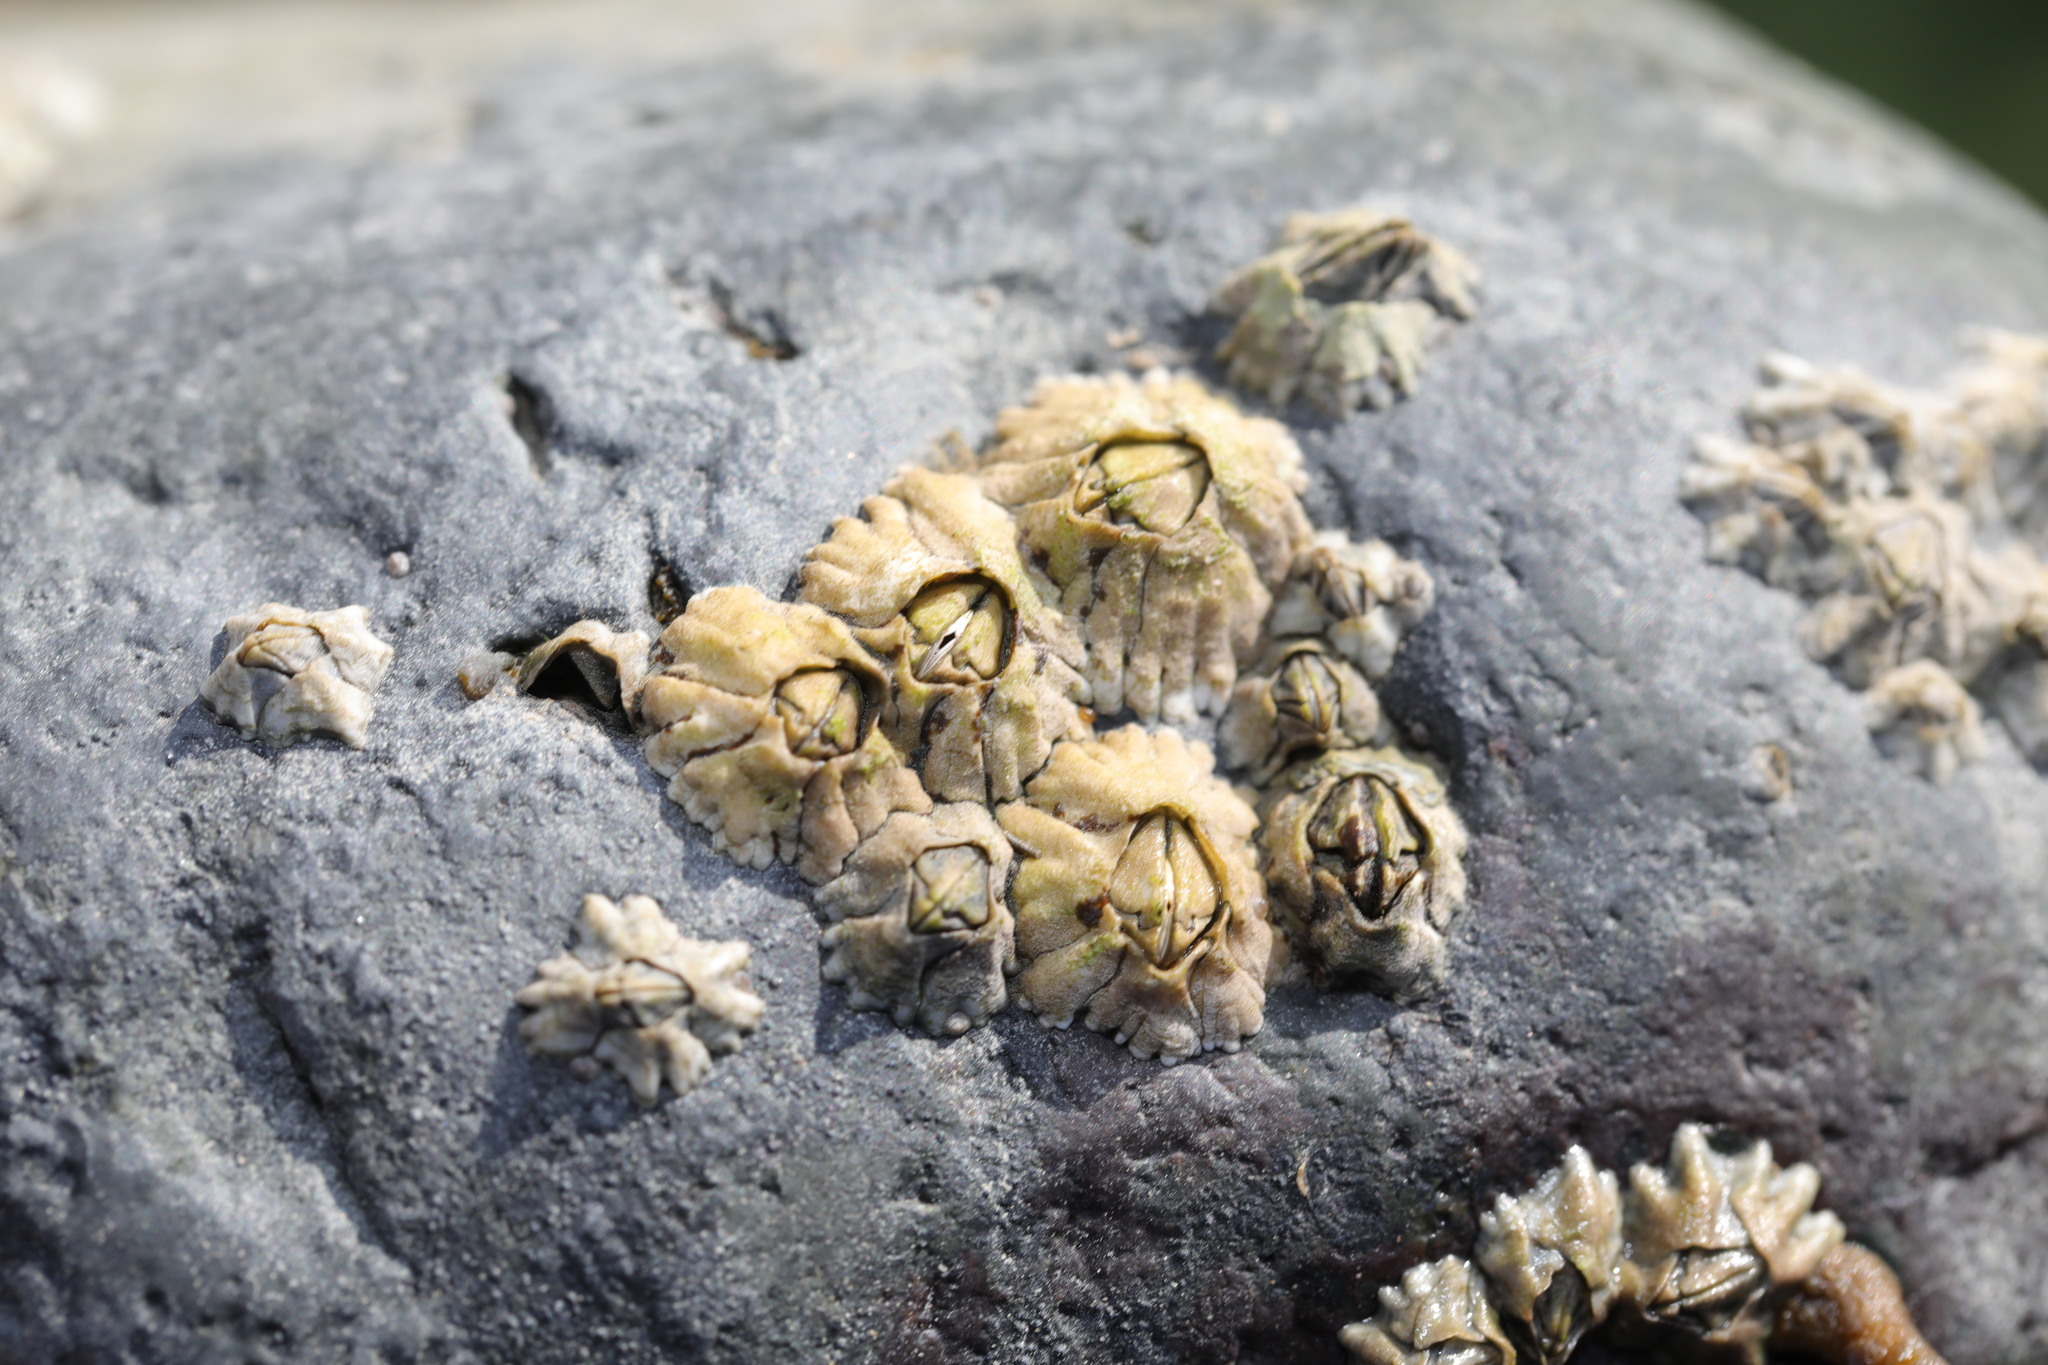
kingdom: Animalia
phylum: Arthropoda
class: Maxillopoda
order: Sessilia
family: Archaeobalanidae
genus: Semibalanus
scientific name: Semibalanus balanoides
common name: Acorn barnacle
